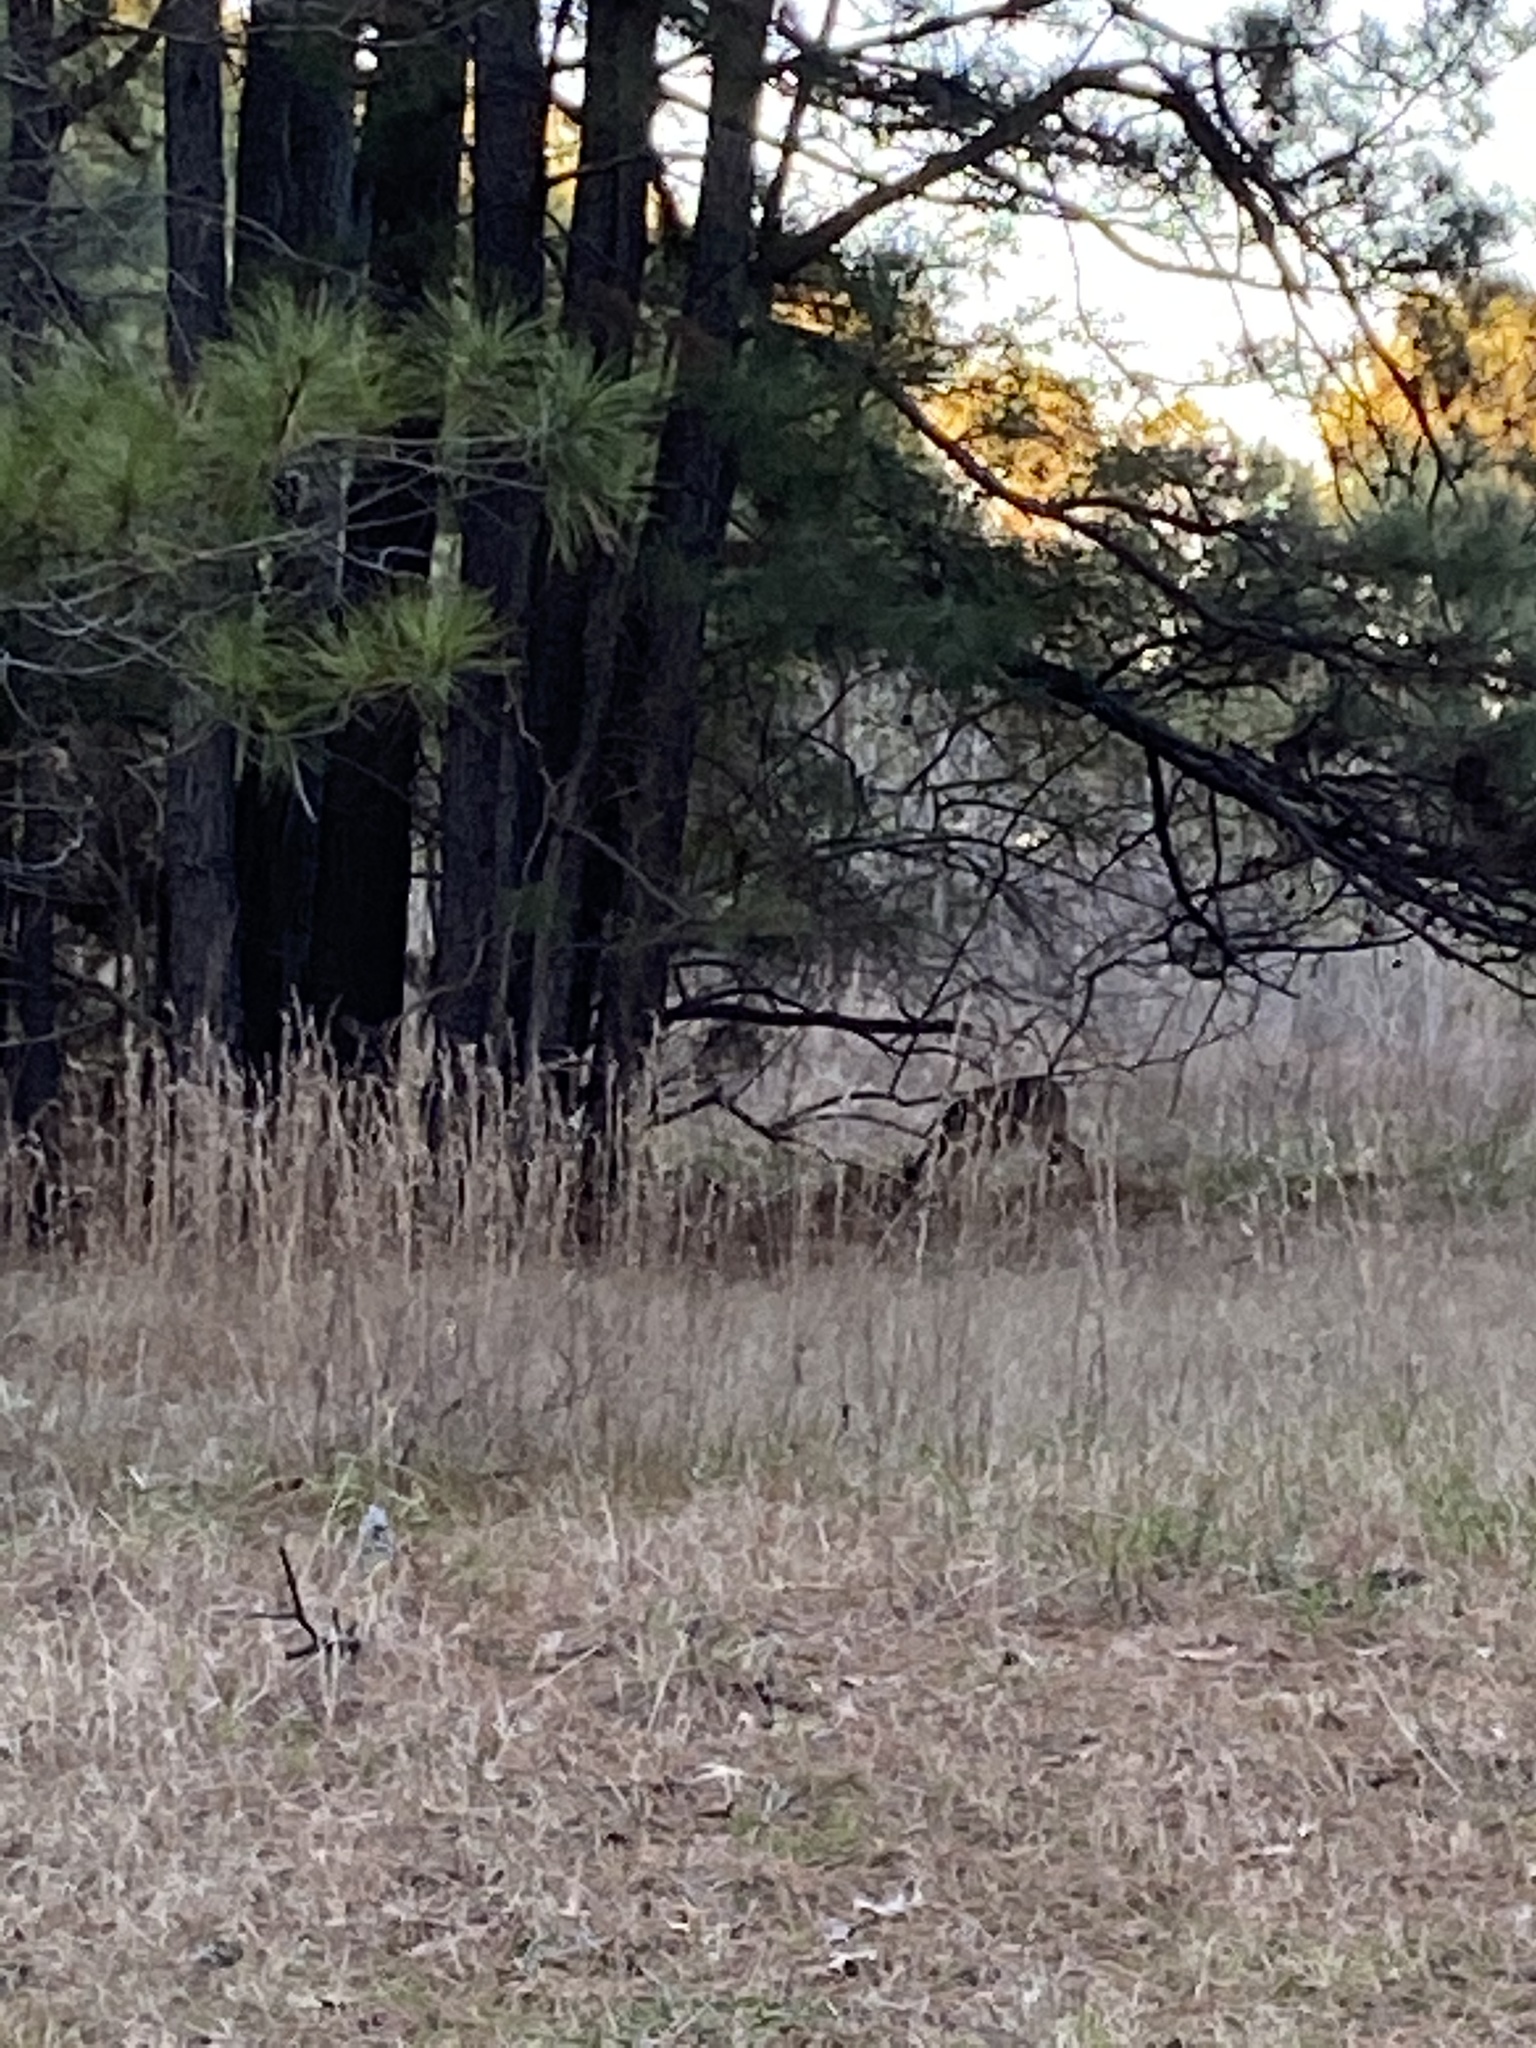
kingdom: Animalia
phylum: Chordata
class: Mammalia
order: Artiodactyla
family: Cervidae
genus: Odocoileus
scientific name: Odocoileus virginianus
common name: White-tailed deer
